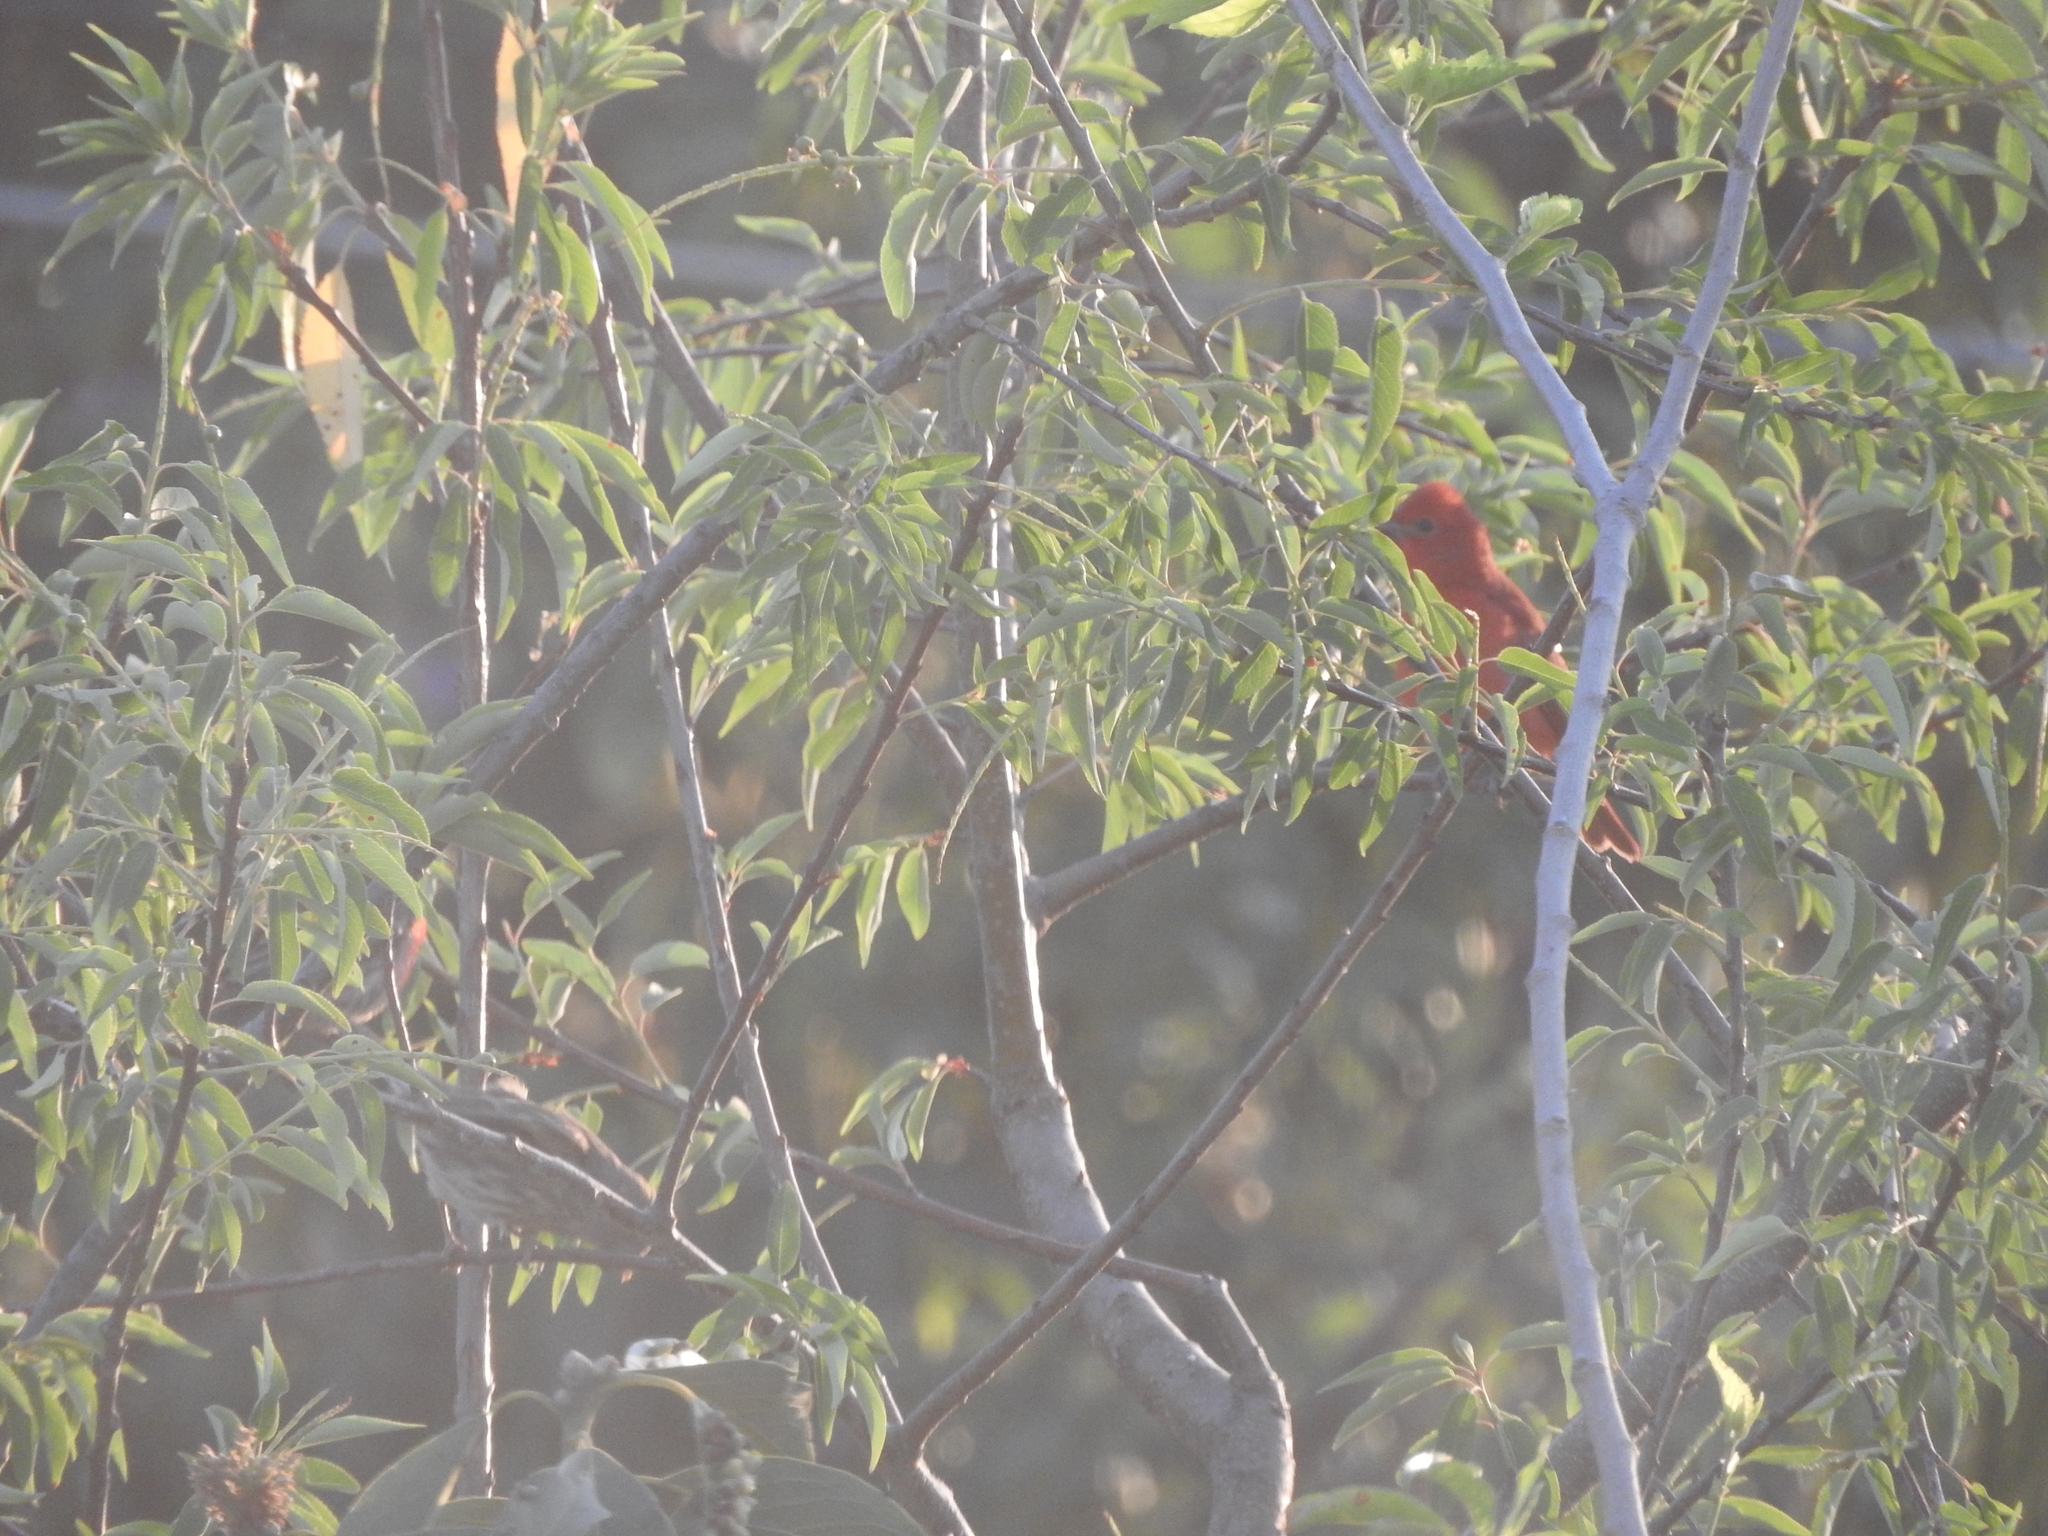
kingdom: Animalia
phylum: Chordata
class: Aves
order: Passeriformes
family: Cardinalidae
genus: Piranga
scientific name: Piranga rubra
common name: Summer tanager
